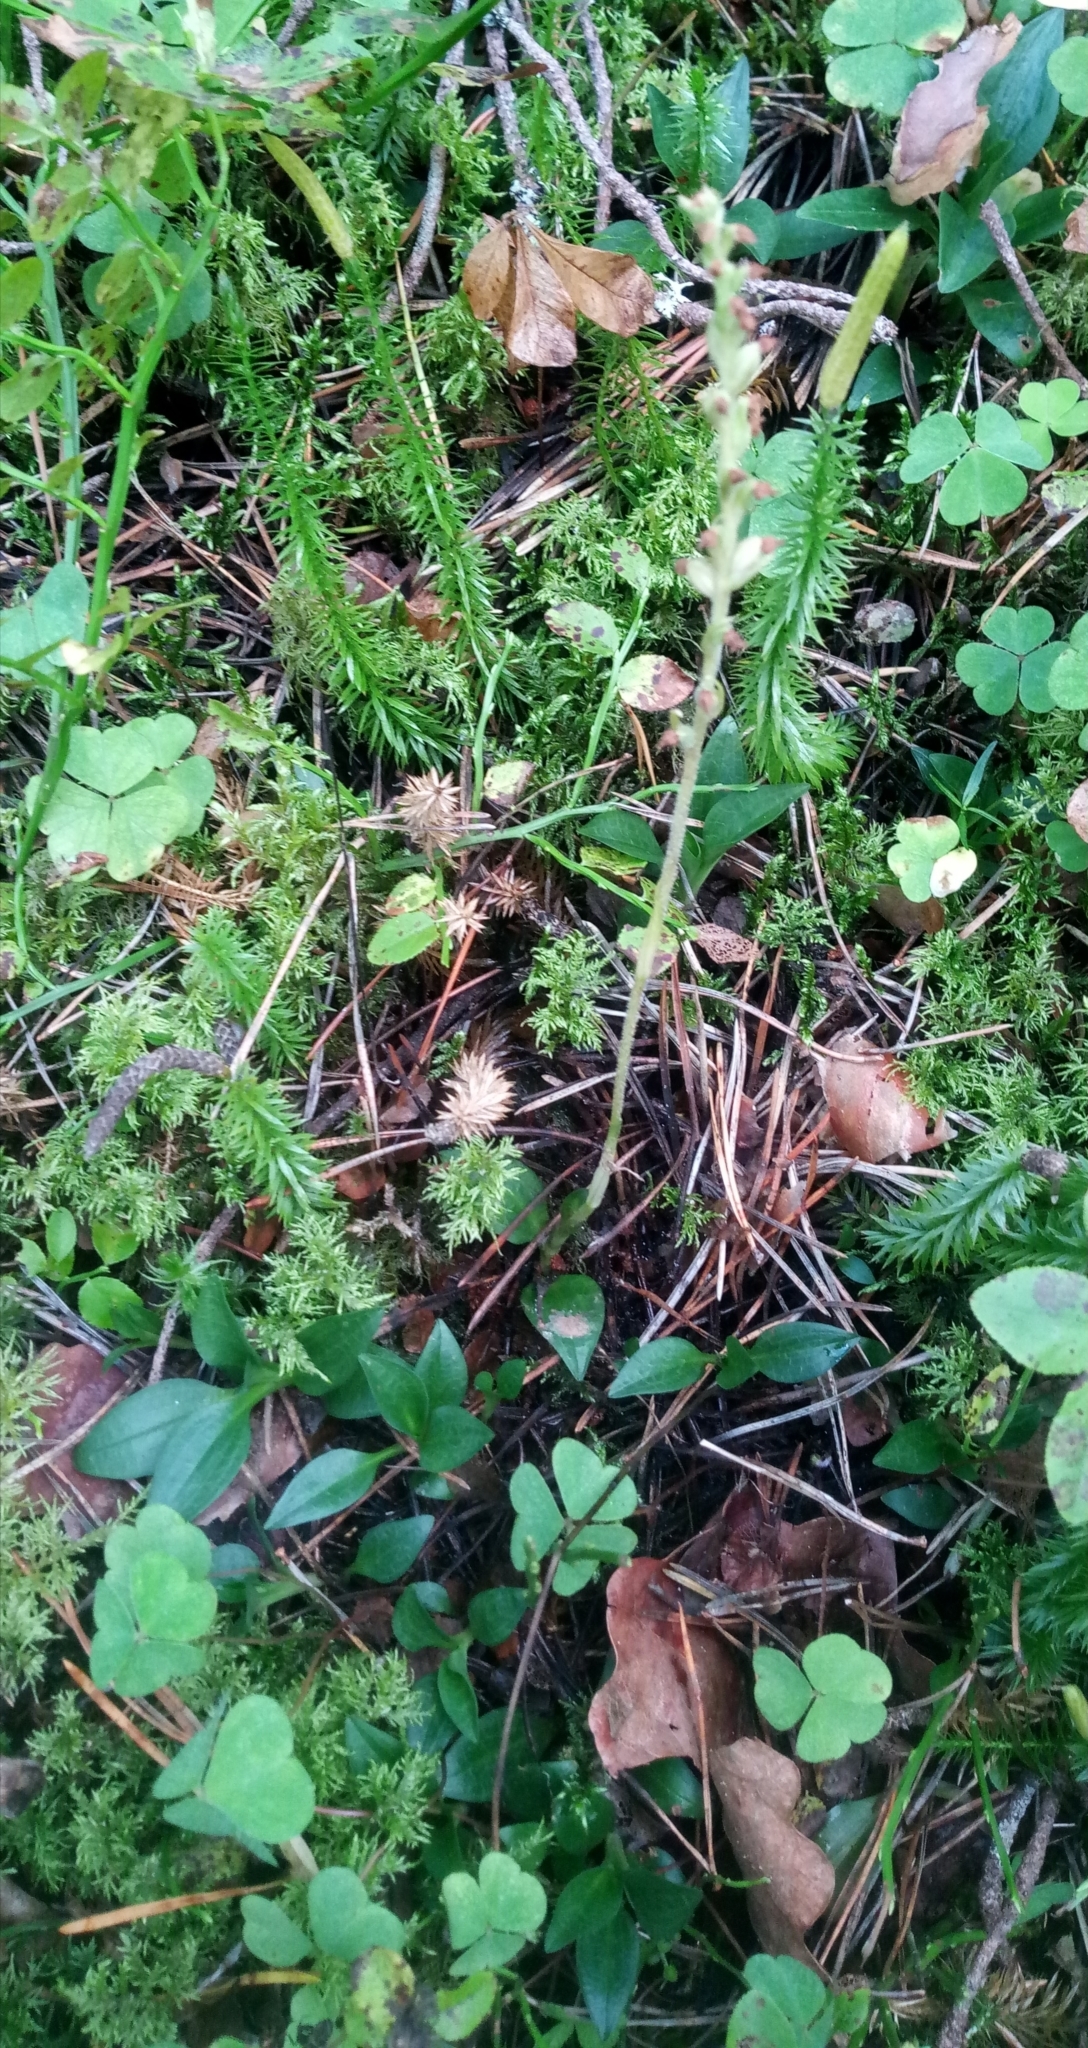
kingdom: Plantae
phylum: Tracheophyta
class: Liliopsida
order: Asparagales
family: Orchidaceae
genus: Goodyera
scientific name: Goodyera repens
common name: Creeping lady's-tresses
